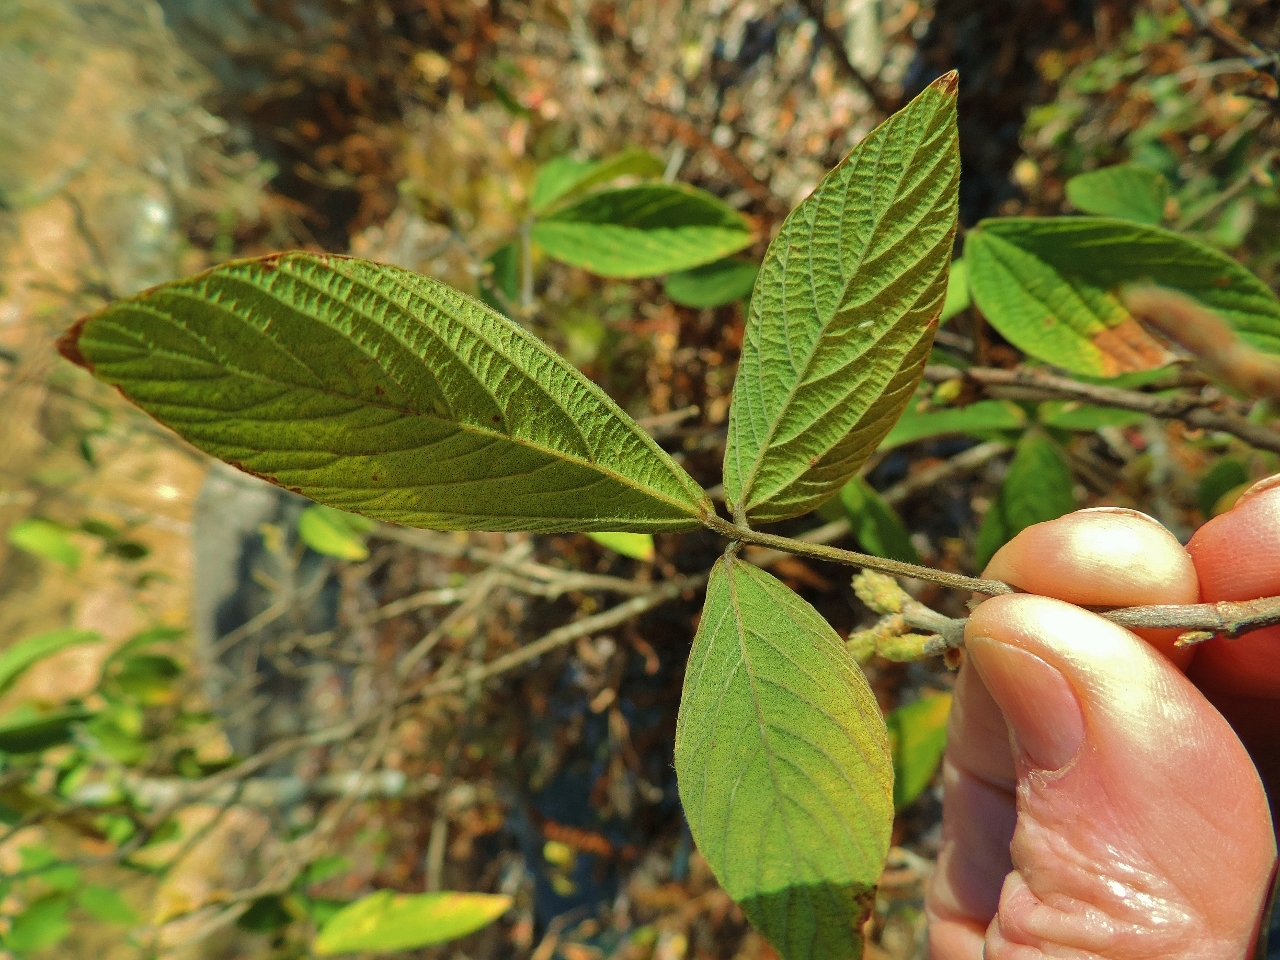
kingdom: Plantae
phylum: Tracheophyta
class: Magnoliopsida
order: Fabales
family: Fabaceae
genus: Flemingia
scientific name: Flemingia grahamiana
